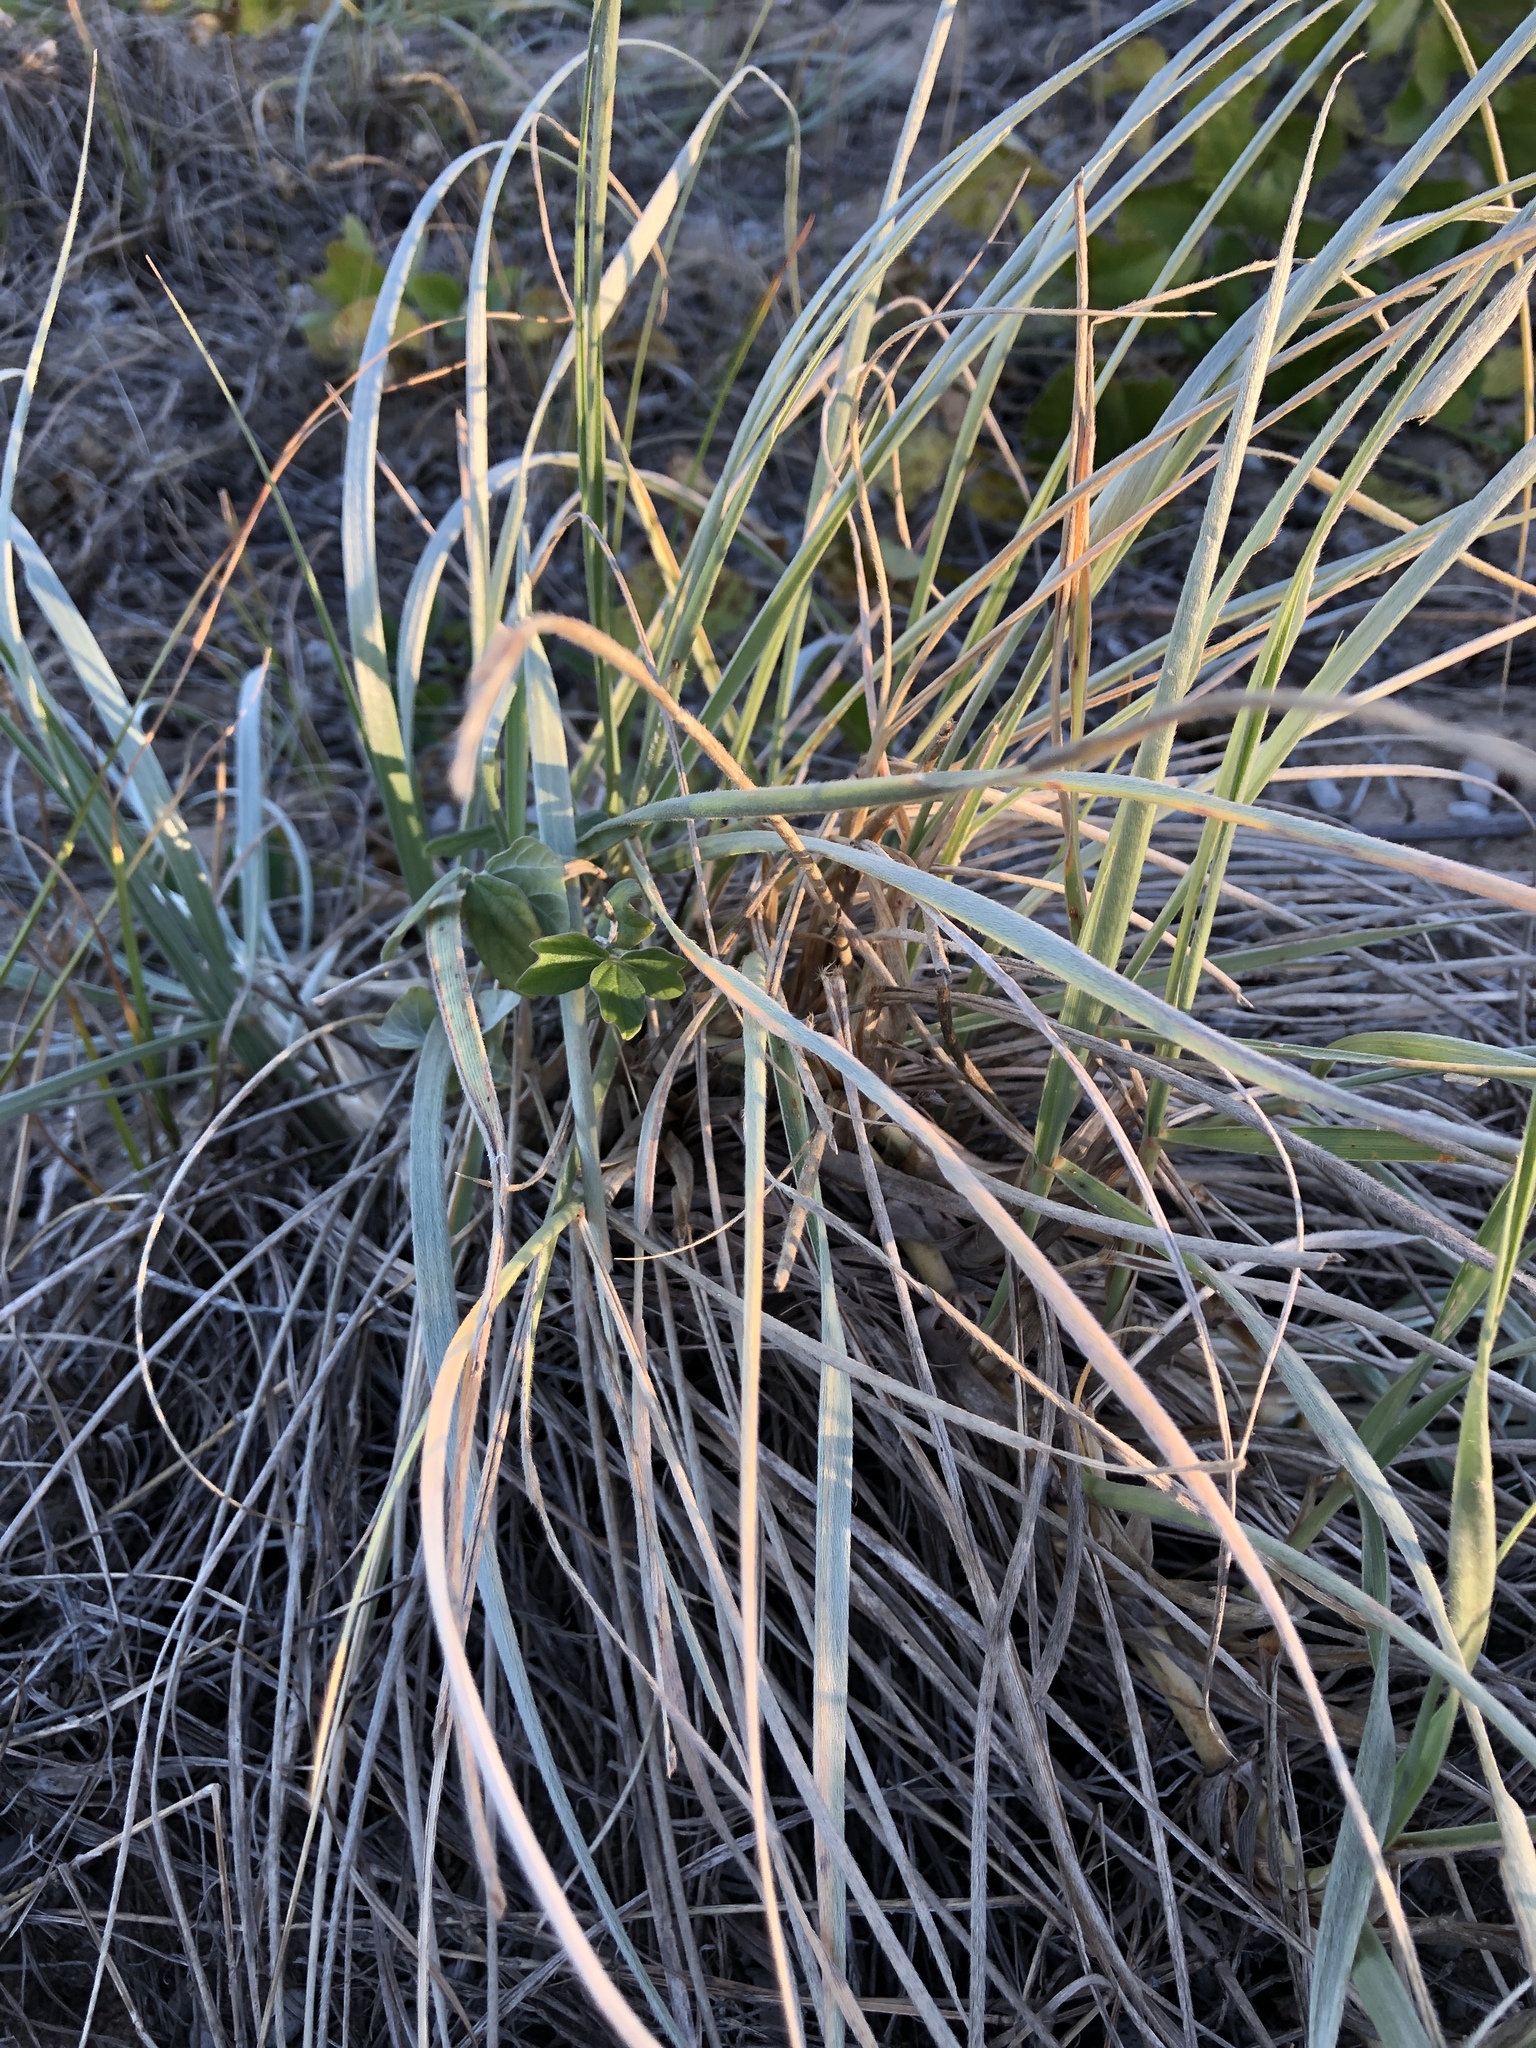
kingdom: Plantae
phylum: Tracheophyta
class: Liliopsida
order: Poales
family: Poaceae
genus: Spinifex
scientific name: Spinifex sericeus
